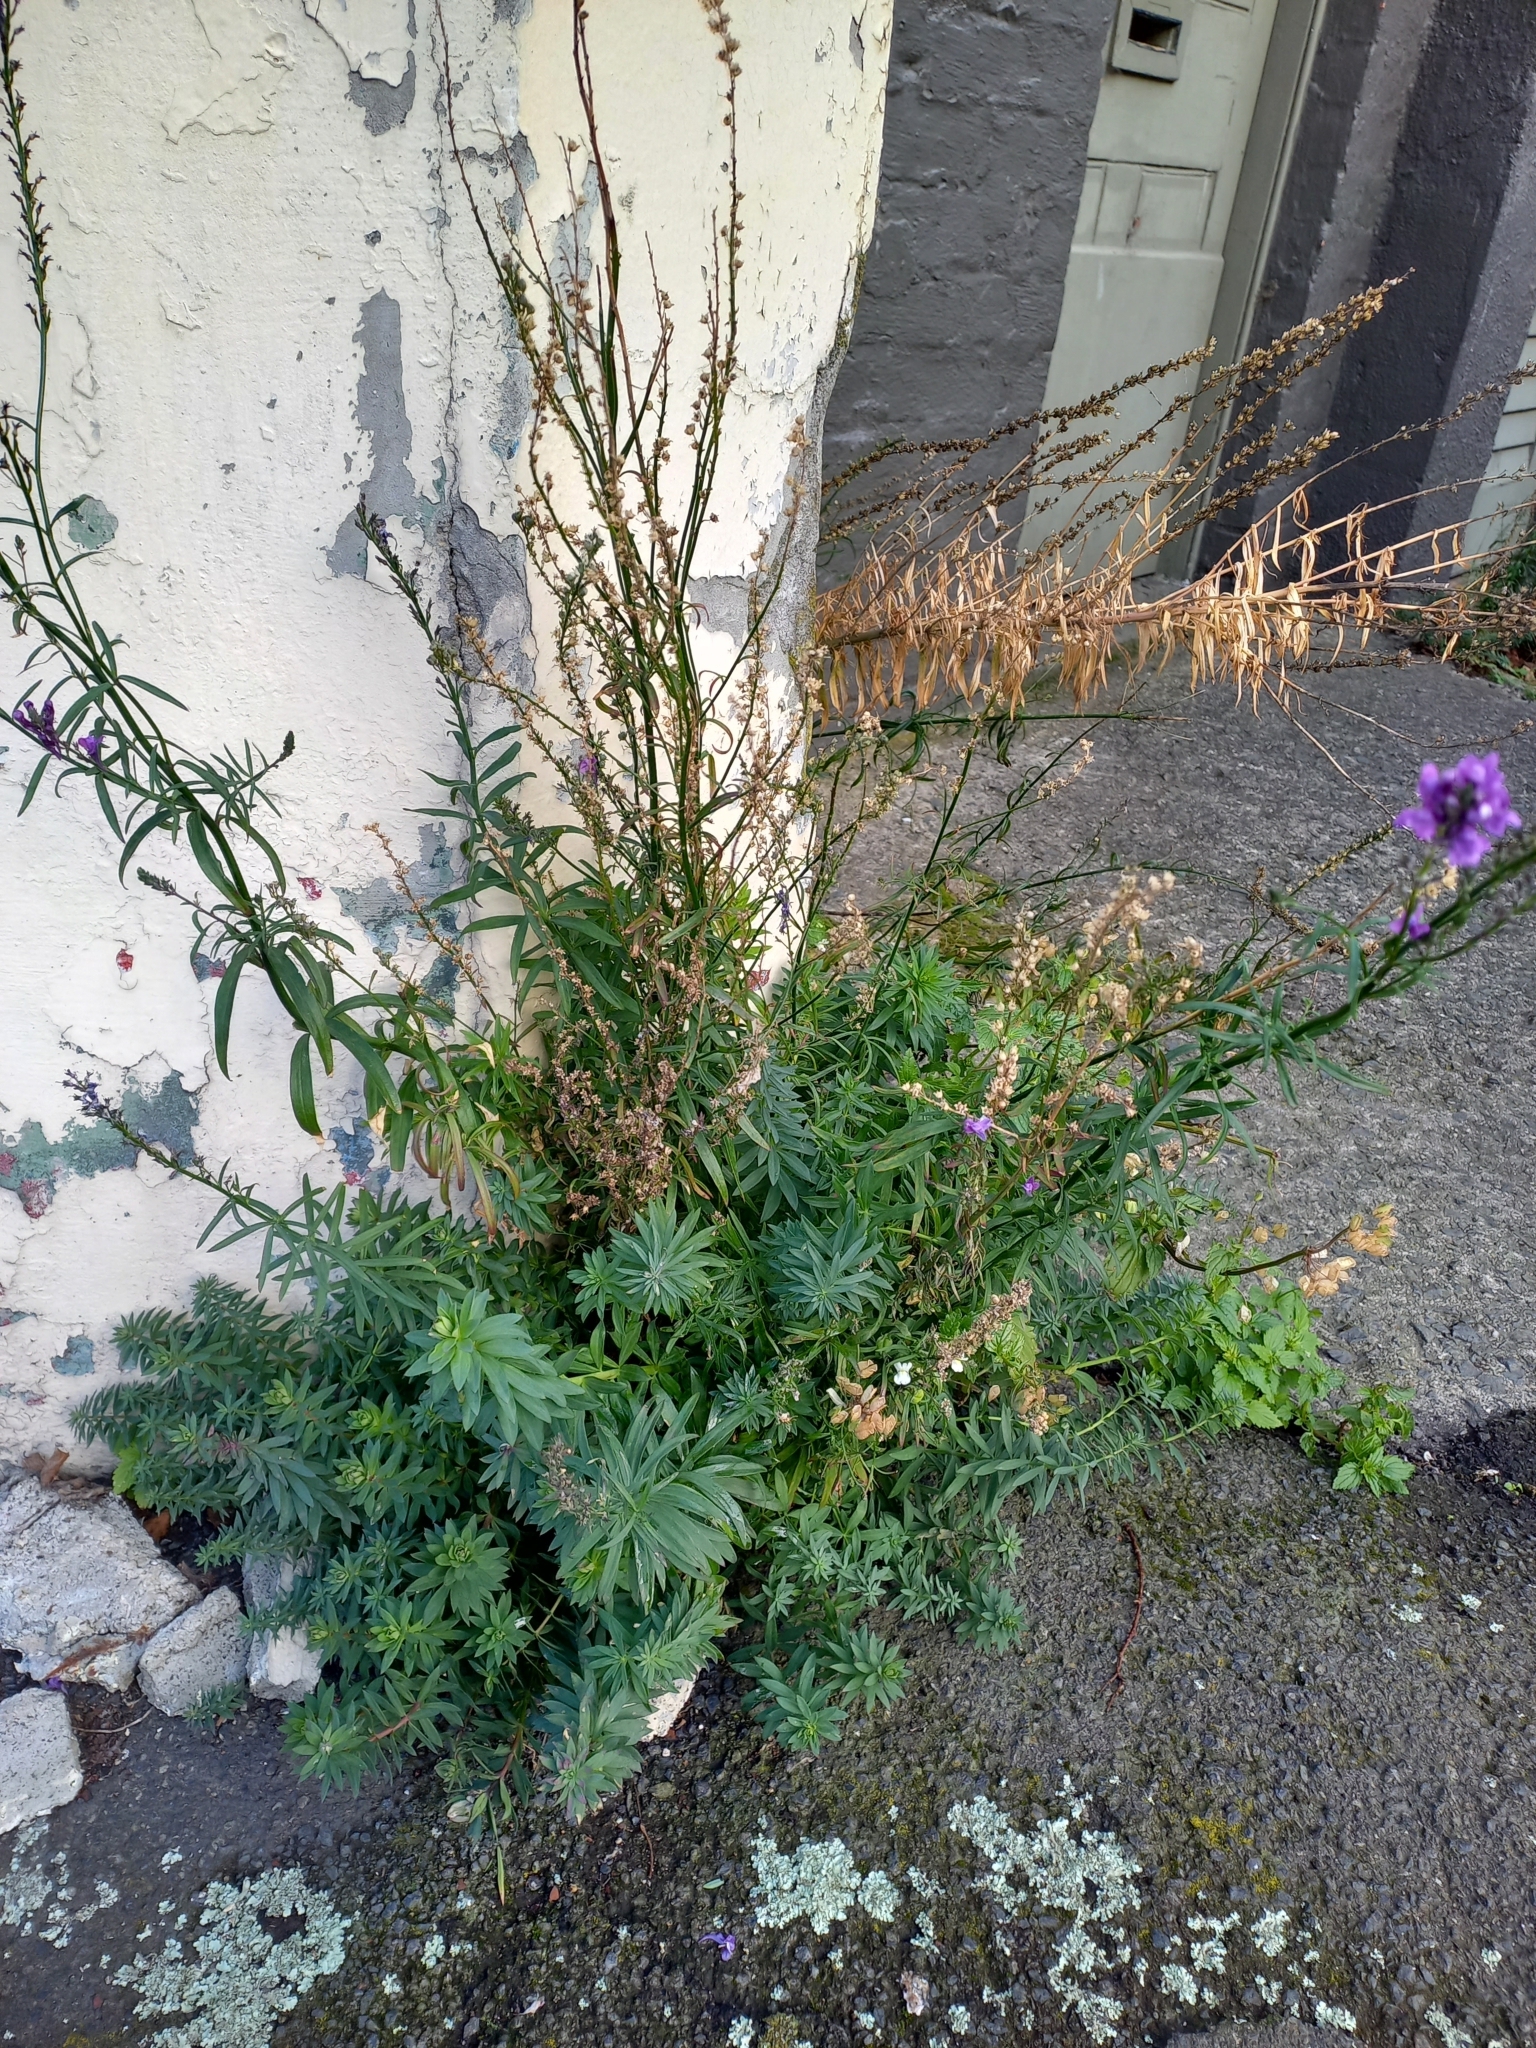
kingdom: Plantae
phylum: Tracheophyta
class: Magnoliopsida
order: Lamiales
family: Plantaginaceae
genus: Linaria
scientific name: Linaria purpurea
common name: Purple toadflax
